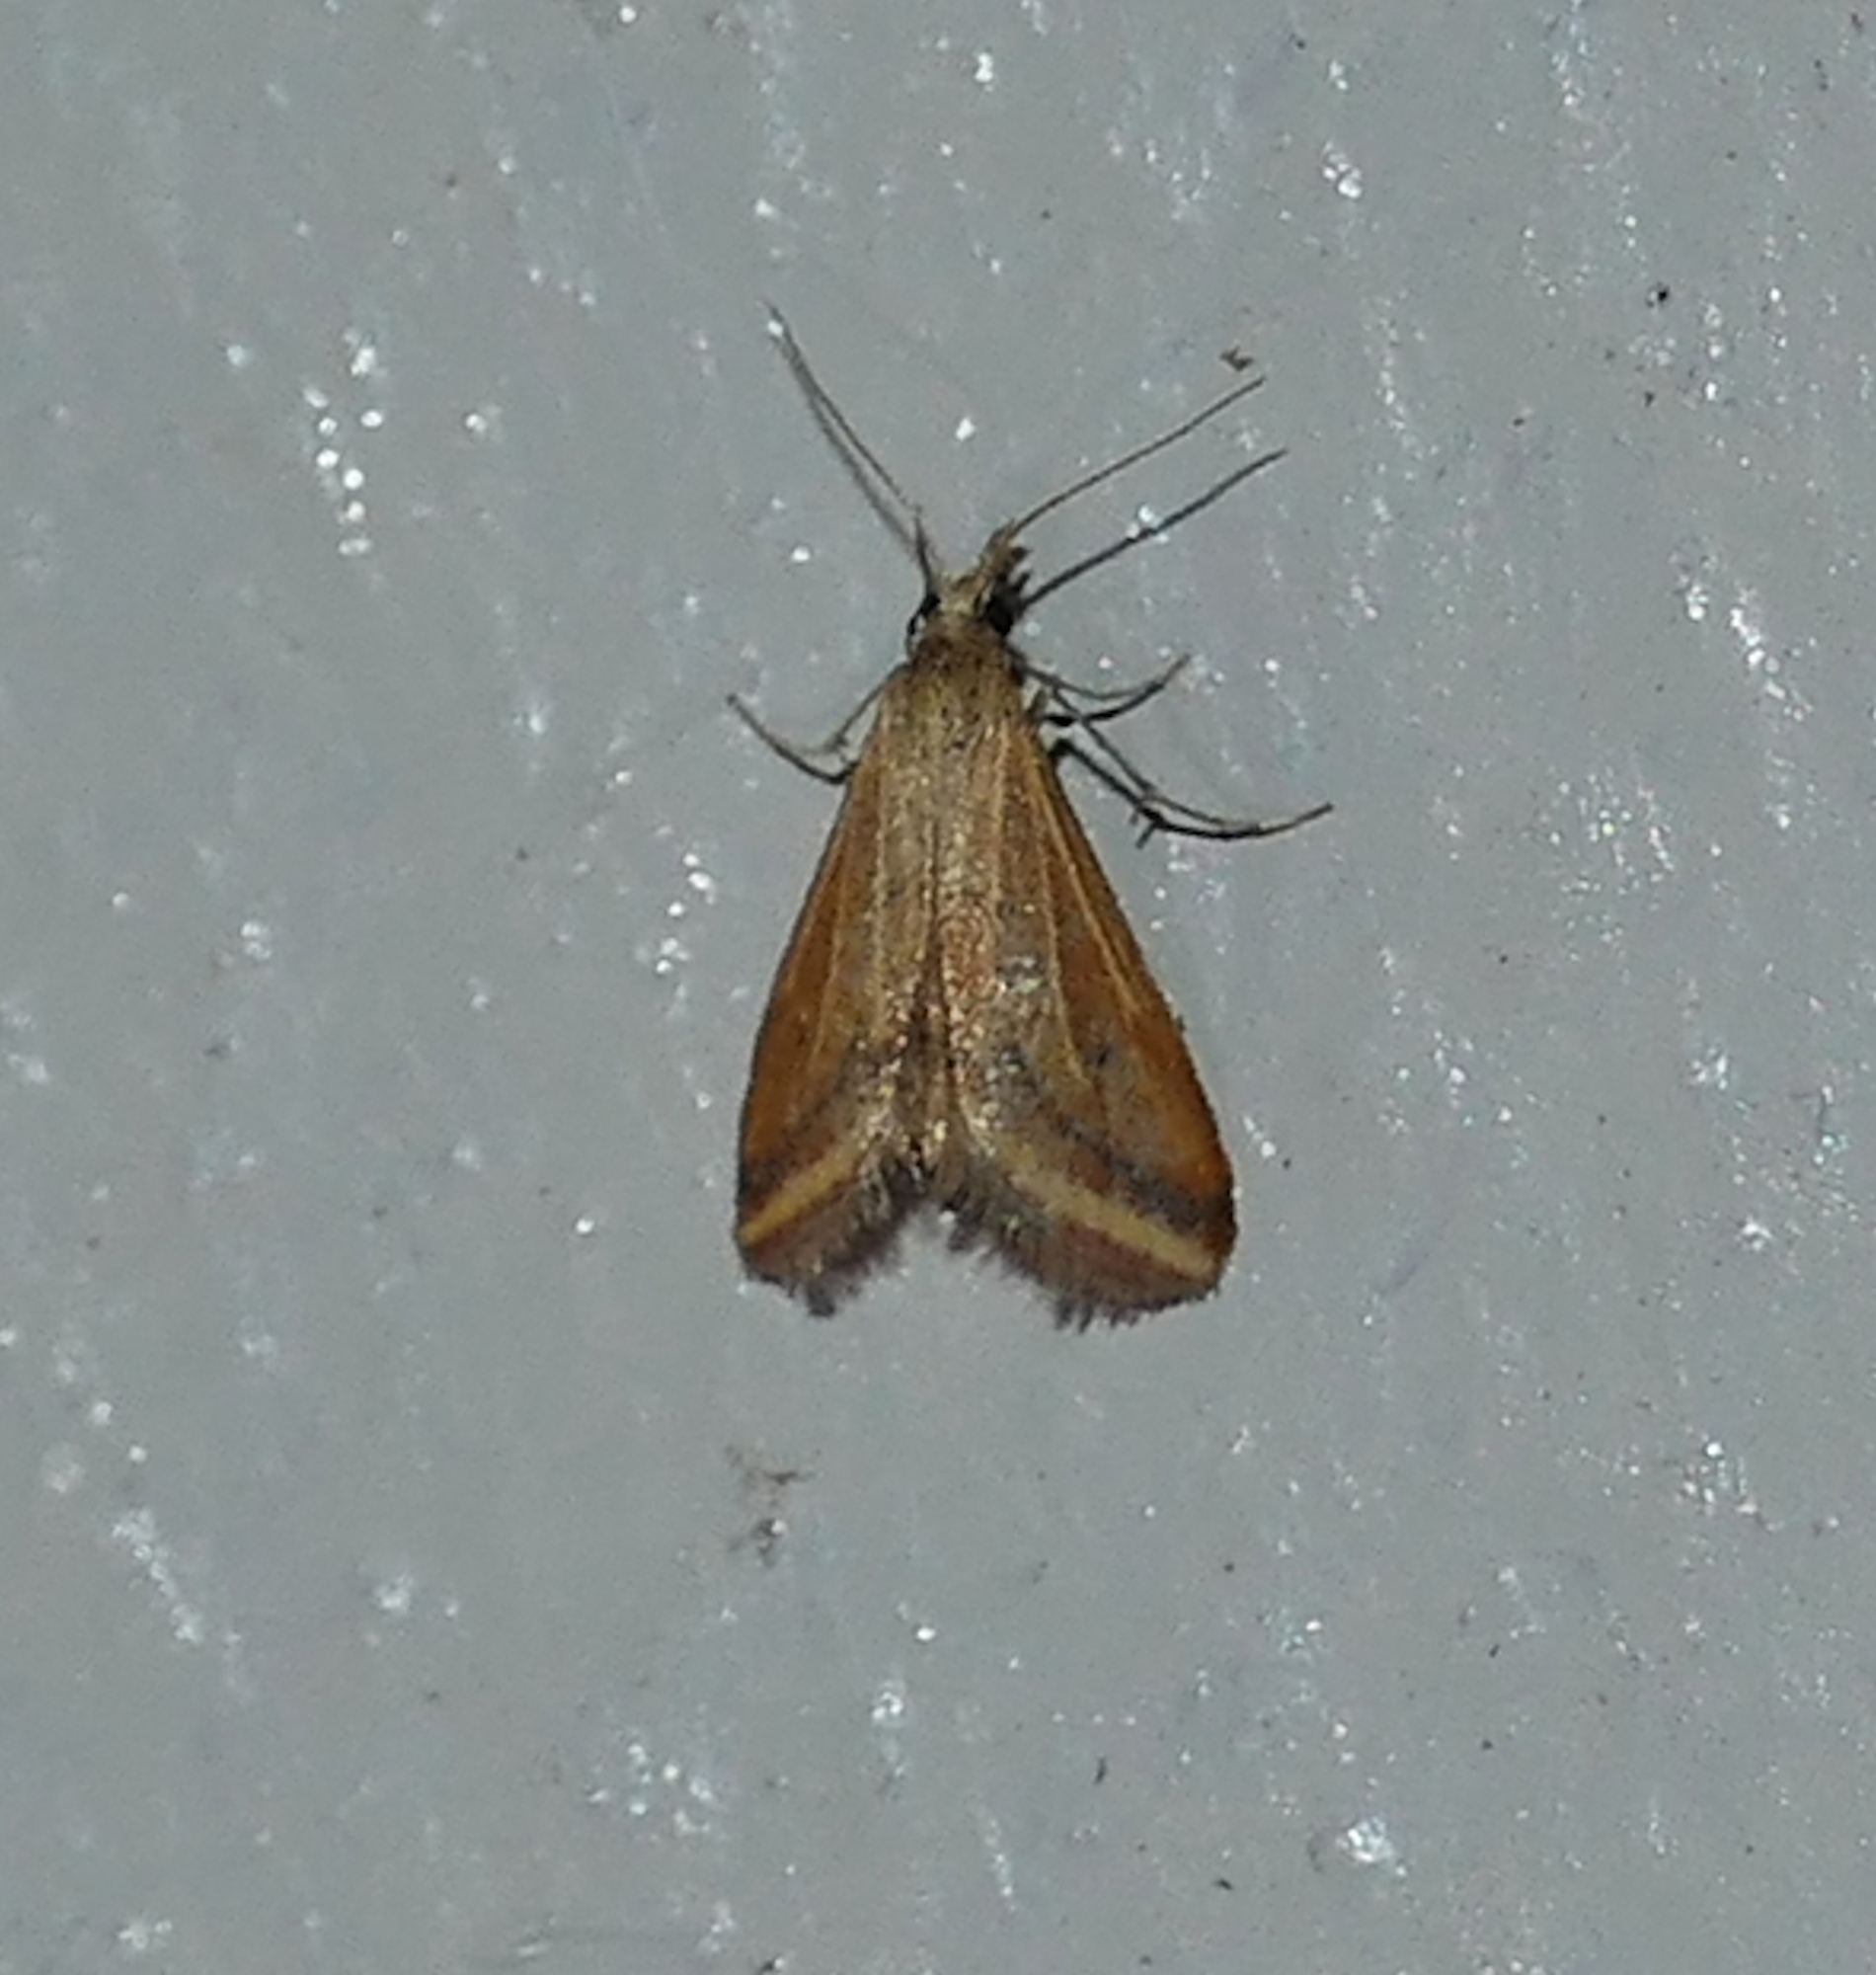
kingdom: Animalia
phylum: Arthropoda
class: Insecta
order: Lepidoptera
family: Crambidae
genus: Microtheoris
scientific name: Microtheoris ophionalis
